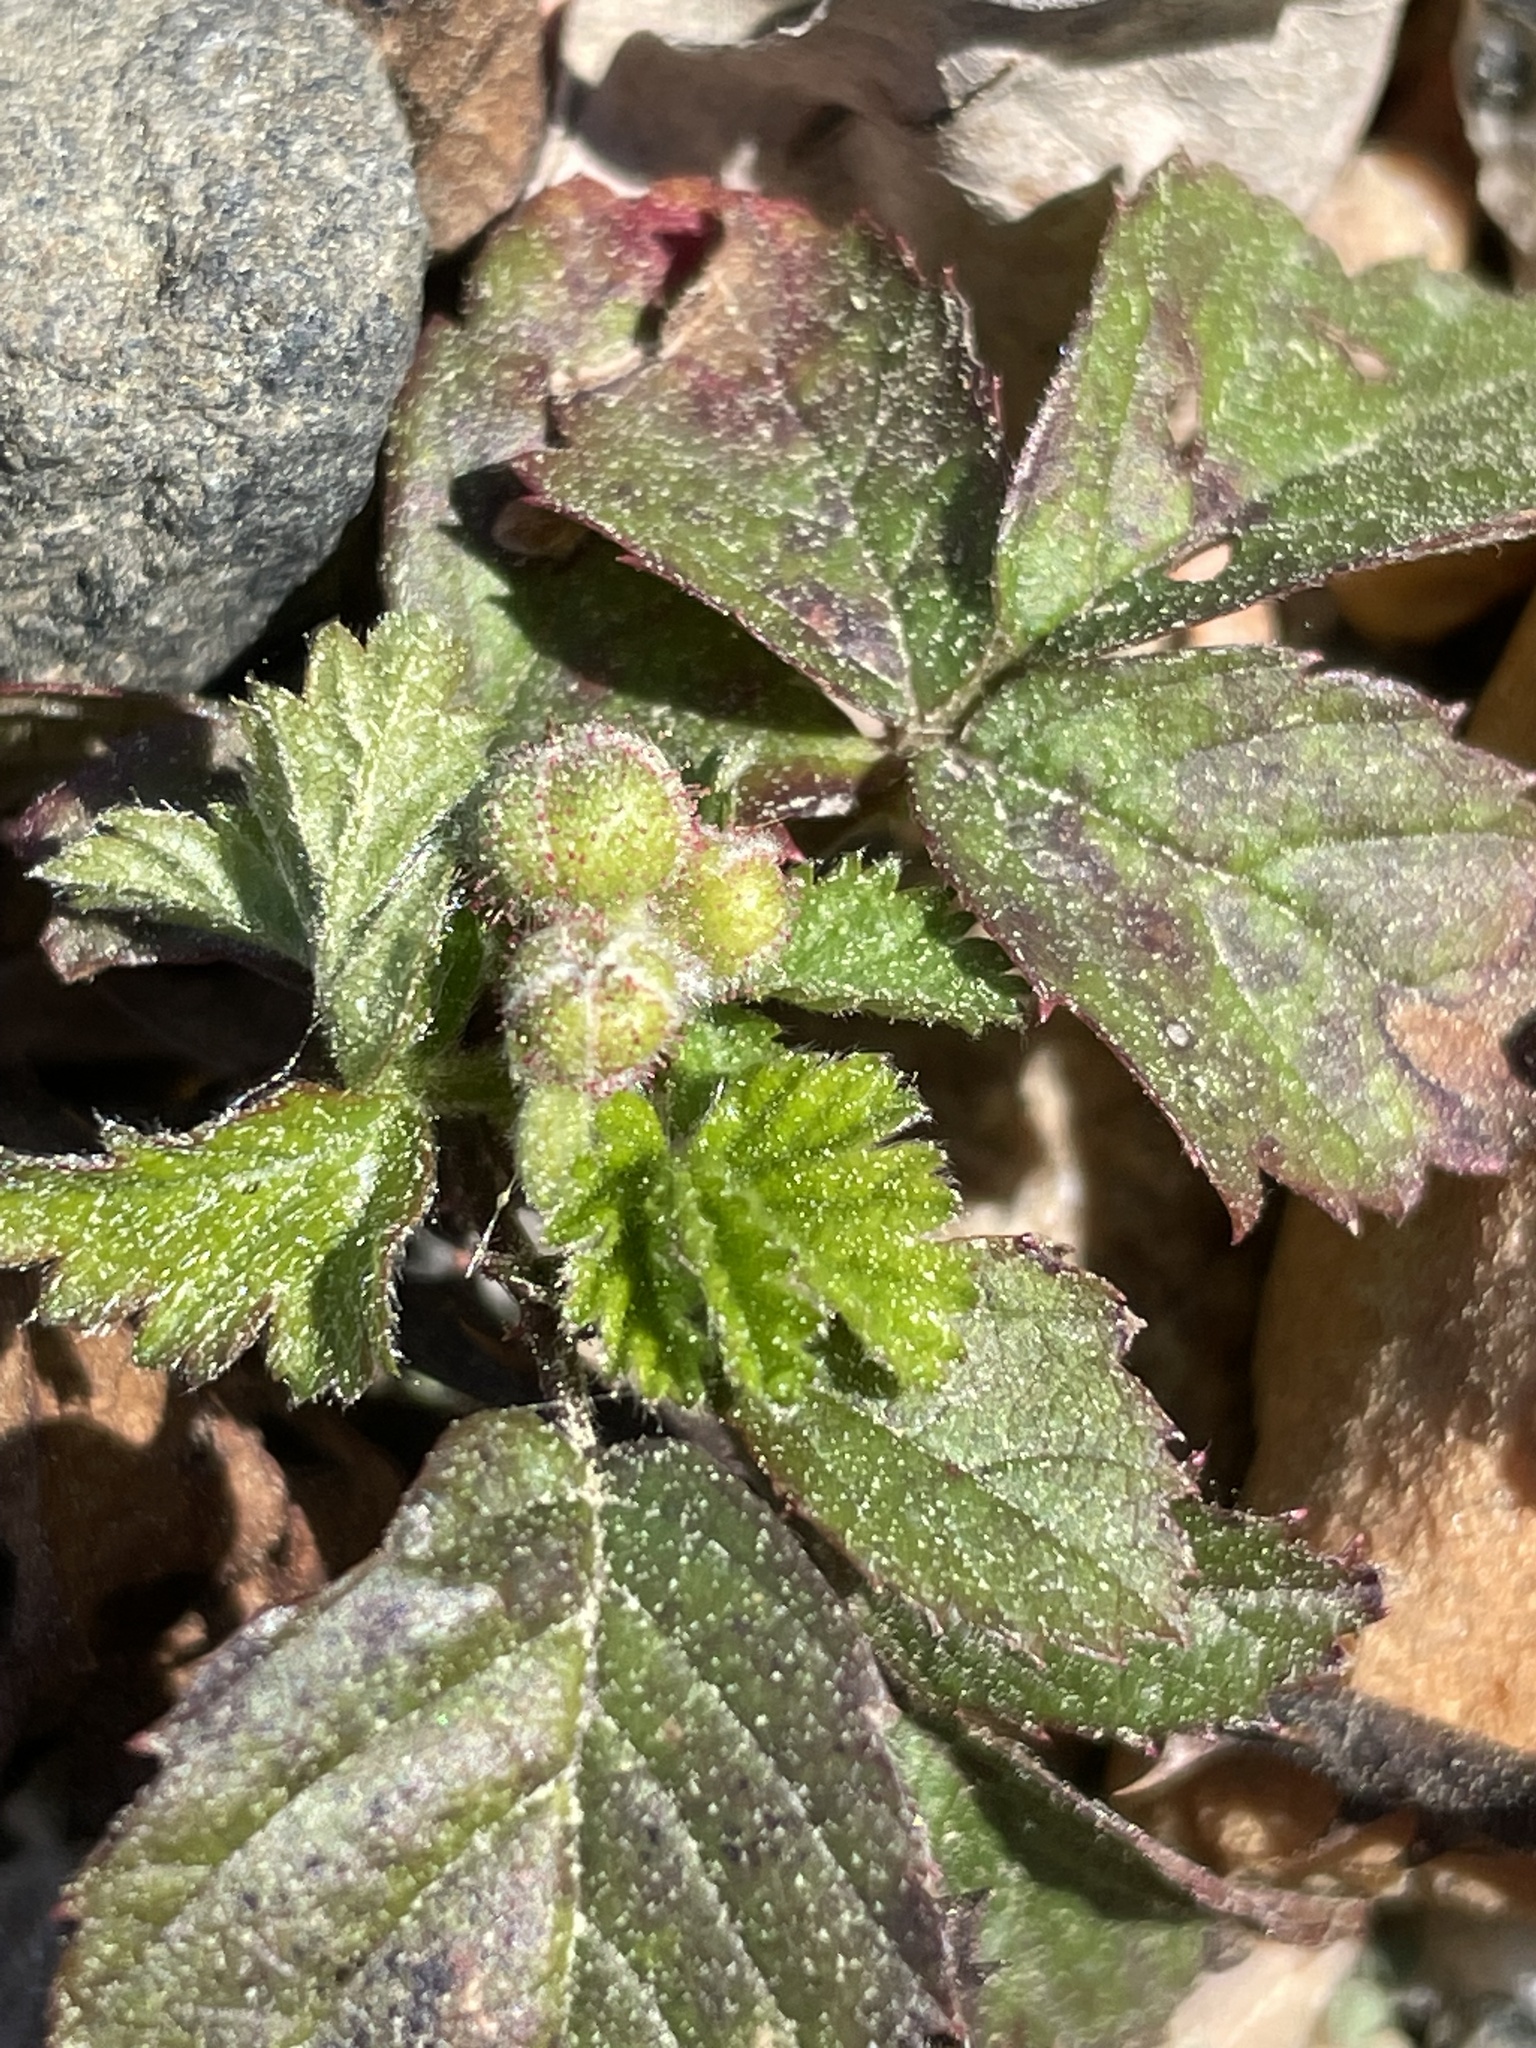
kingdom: Plantae
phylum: Tracheophyta
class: Magnoliopsida
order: Rosales
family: Rosaceae
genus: Rubus
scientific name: Rubus flagellaris
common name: American dewberry
